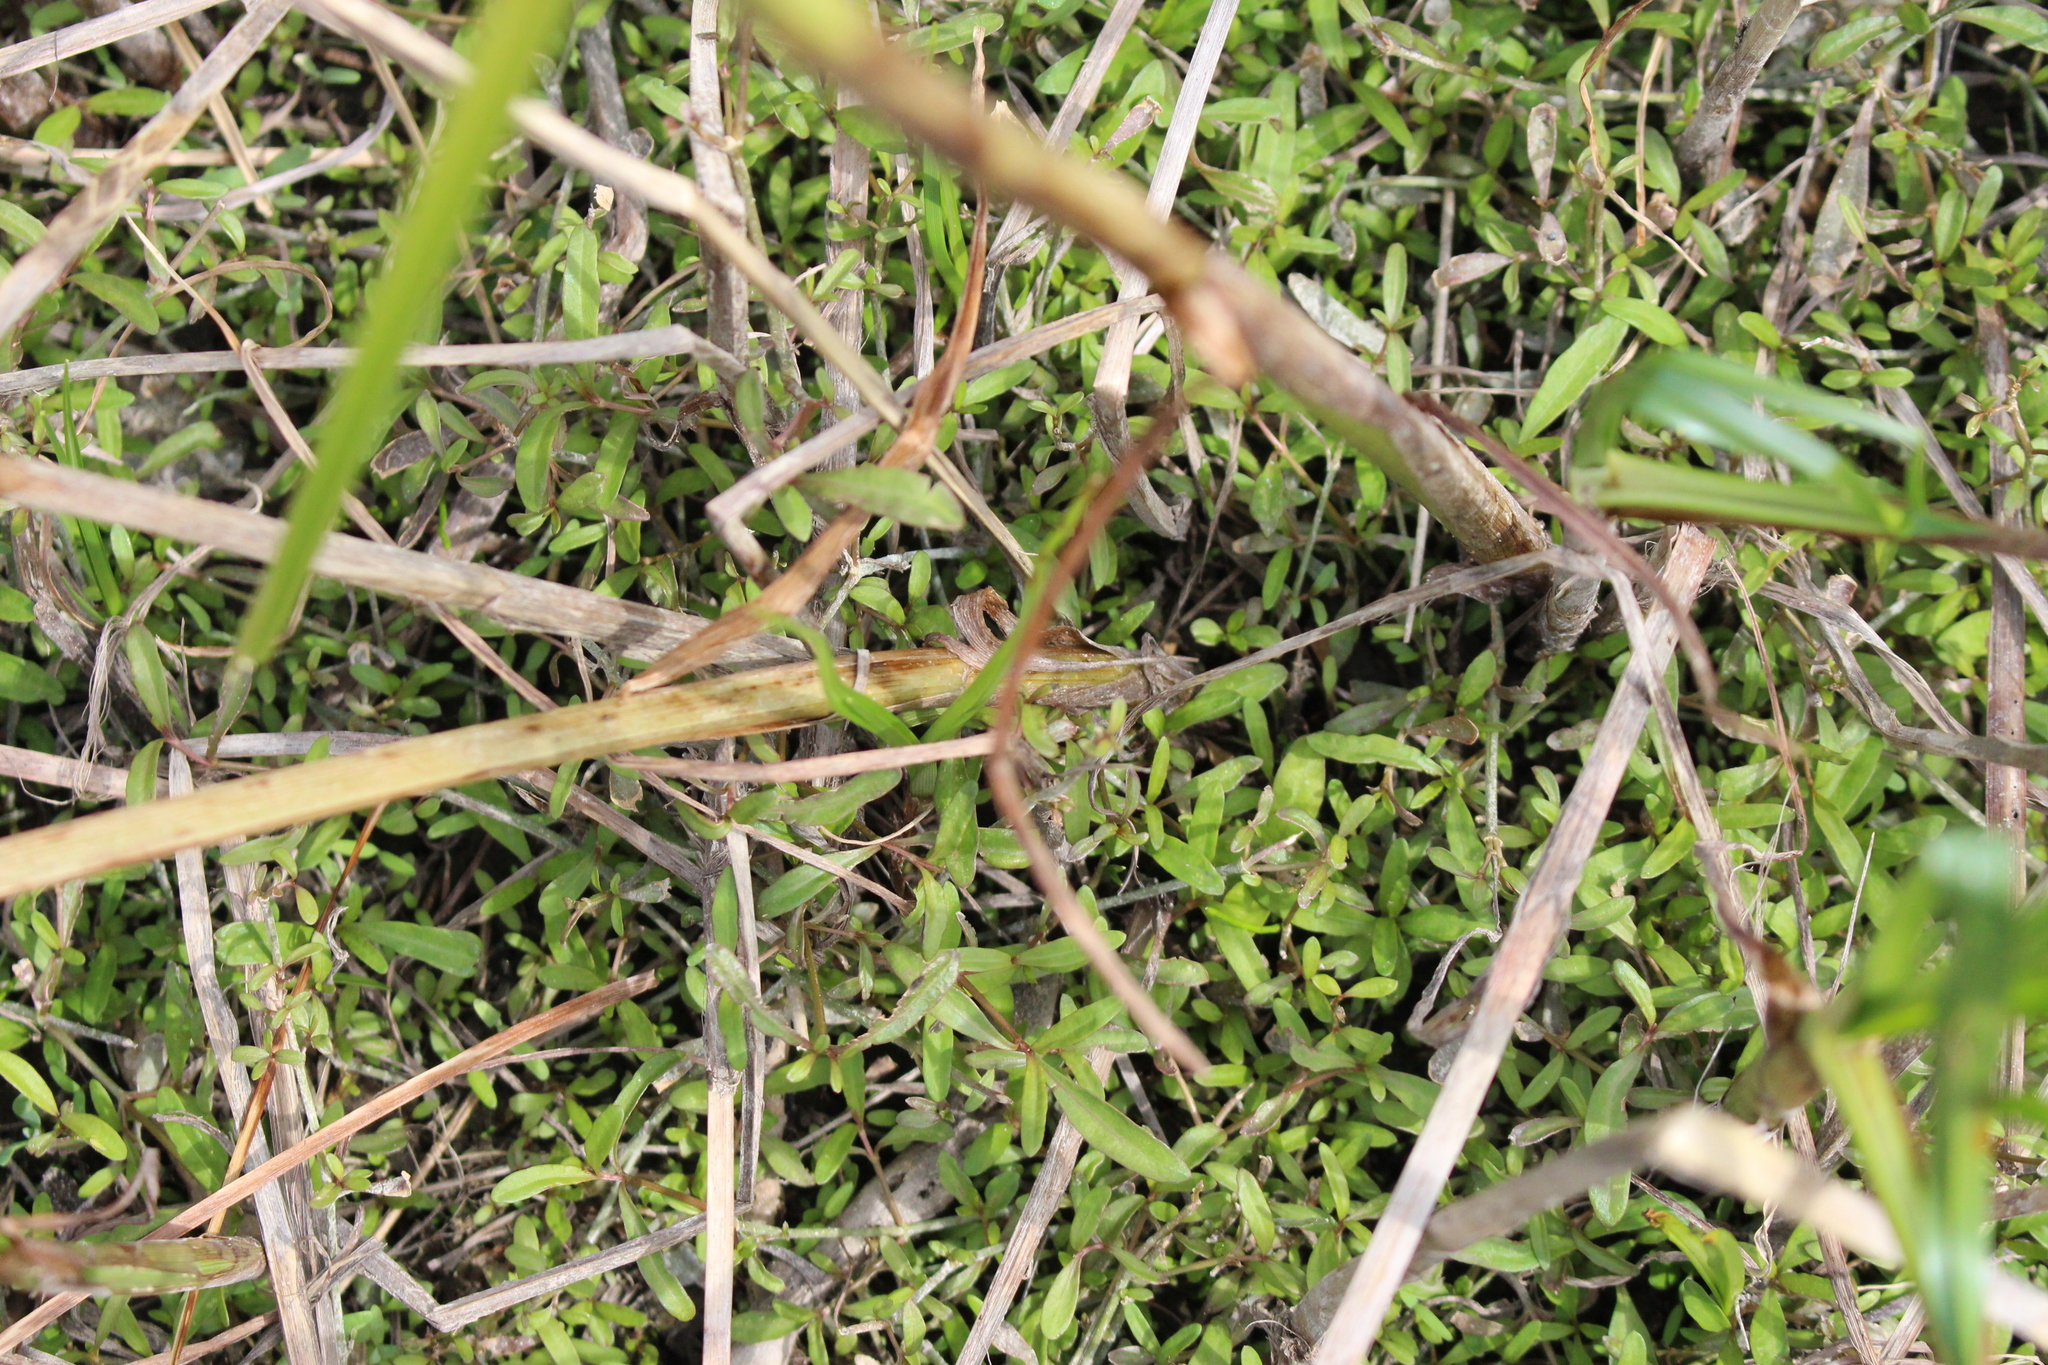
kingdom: Plantae
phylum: Tracheophyta
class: Liliopsida
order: Poales
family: Cyperaceae
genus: Bolboschoenus
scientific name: Bolboschoenus caldwellii
